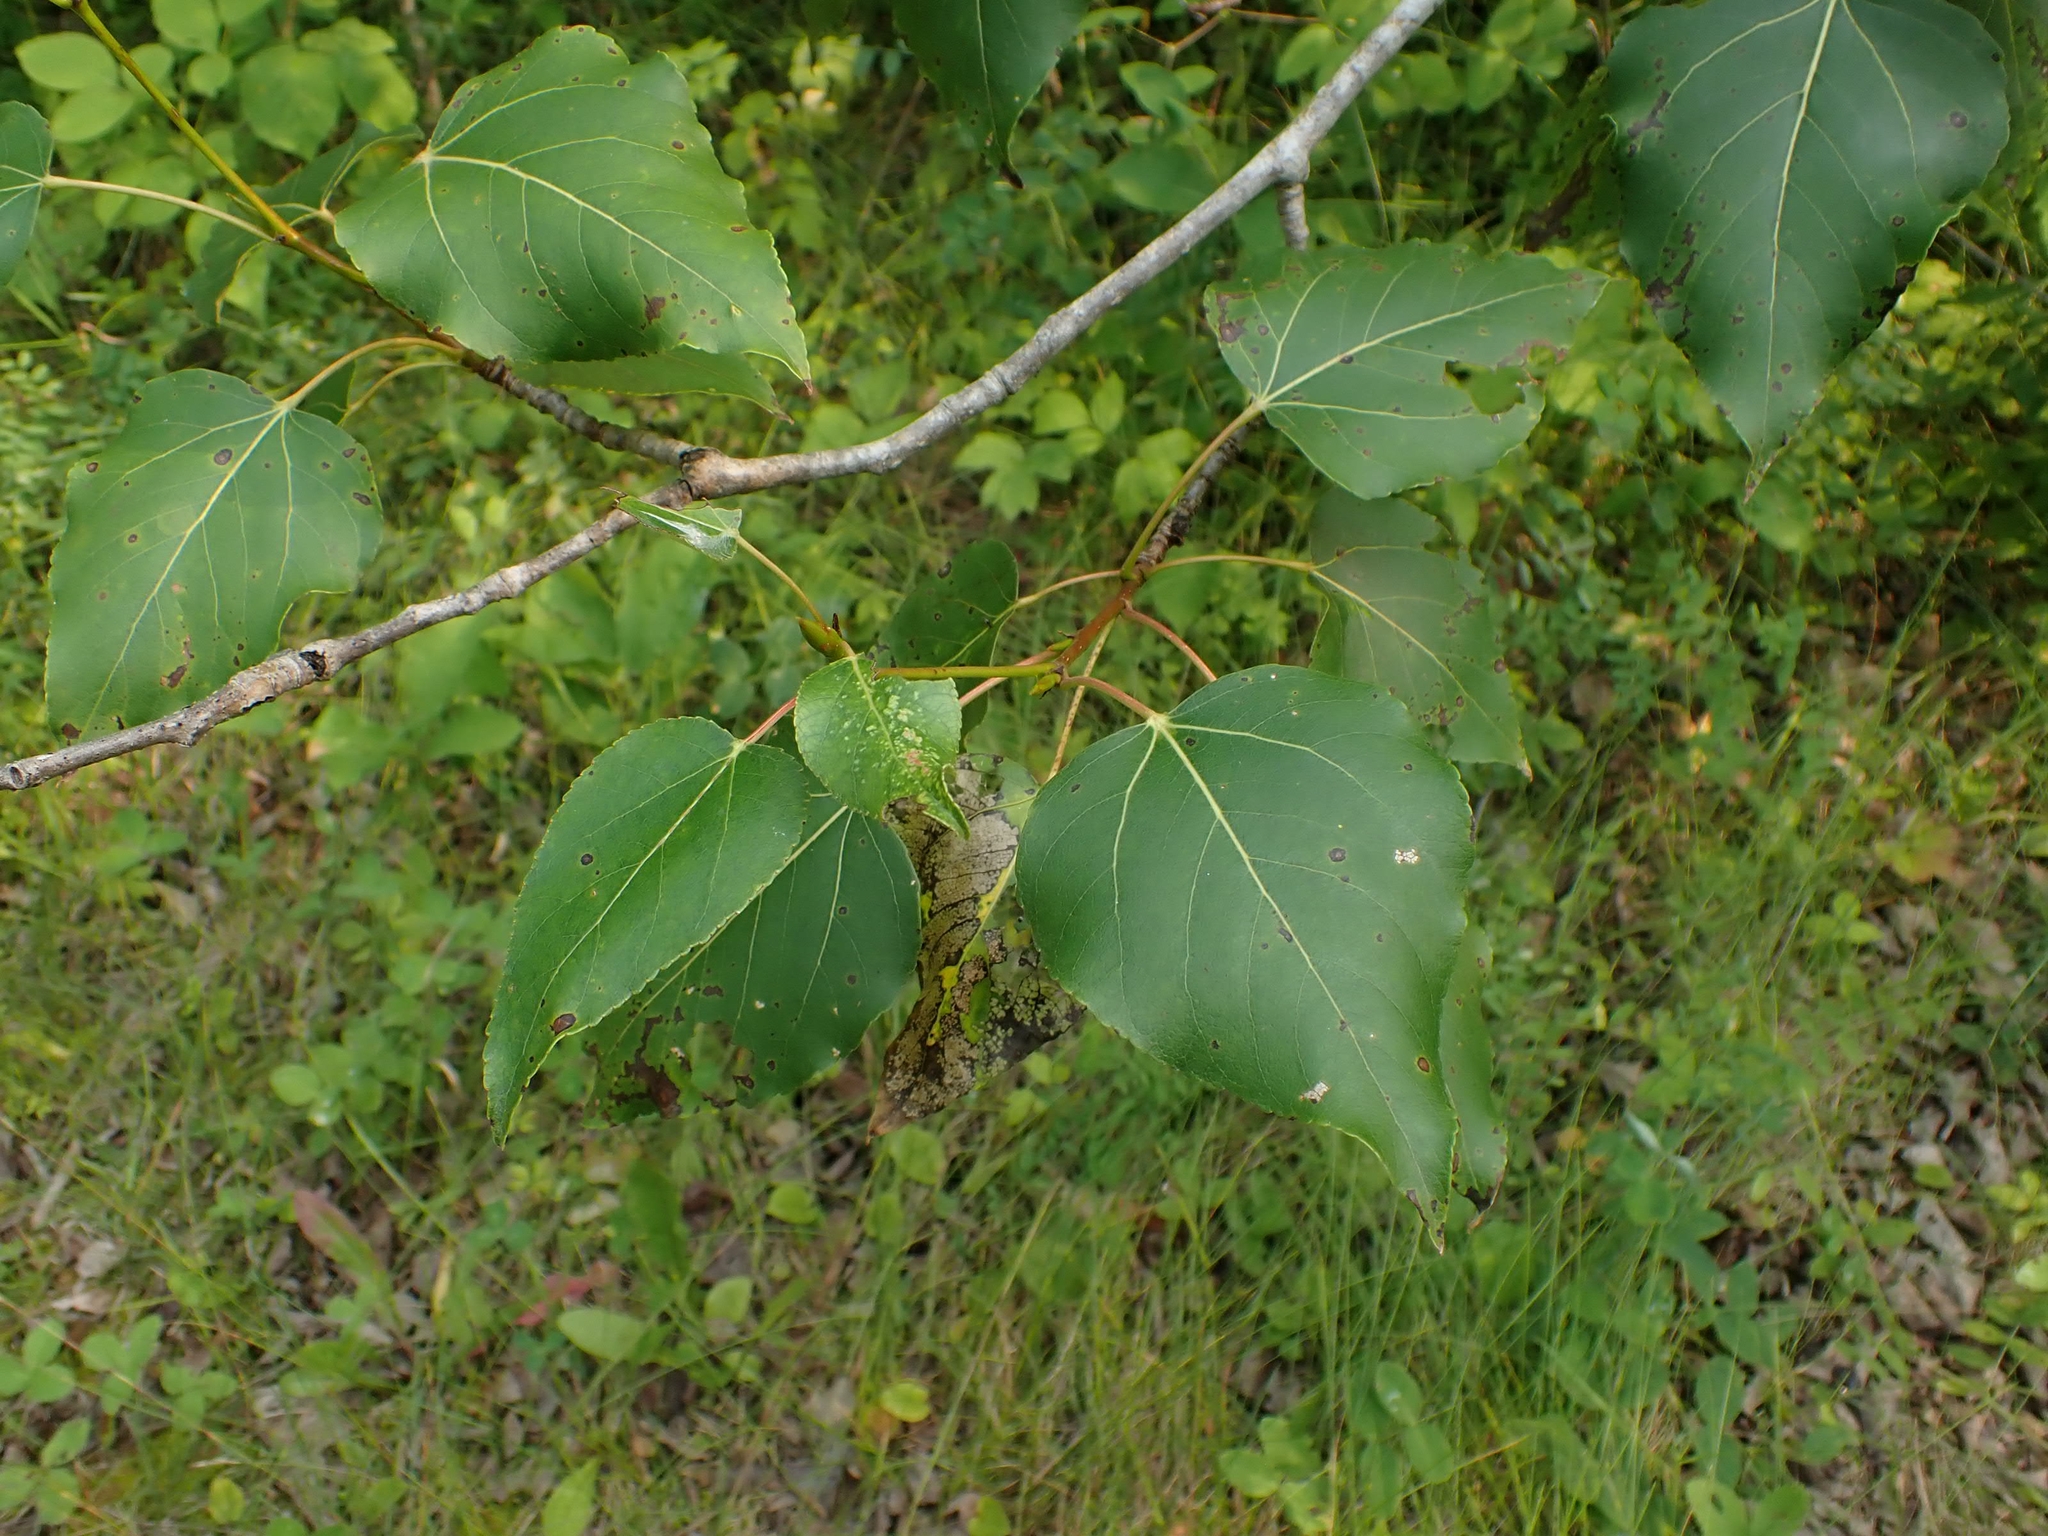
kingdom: Plantae
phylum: Tracheophyta
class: Magnoliopsida
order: Malpighiales
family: Salicaceae
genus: Populus
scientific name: Populus balsamifera
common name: Balsam poplar
